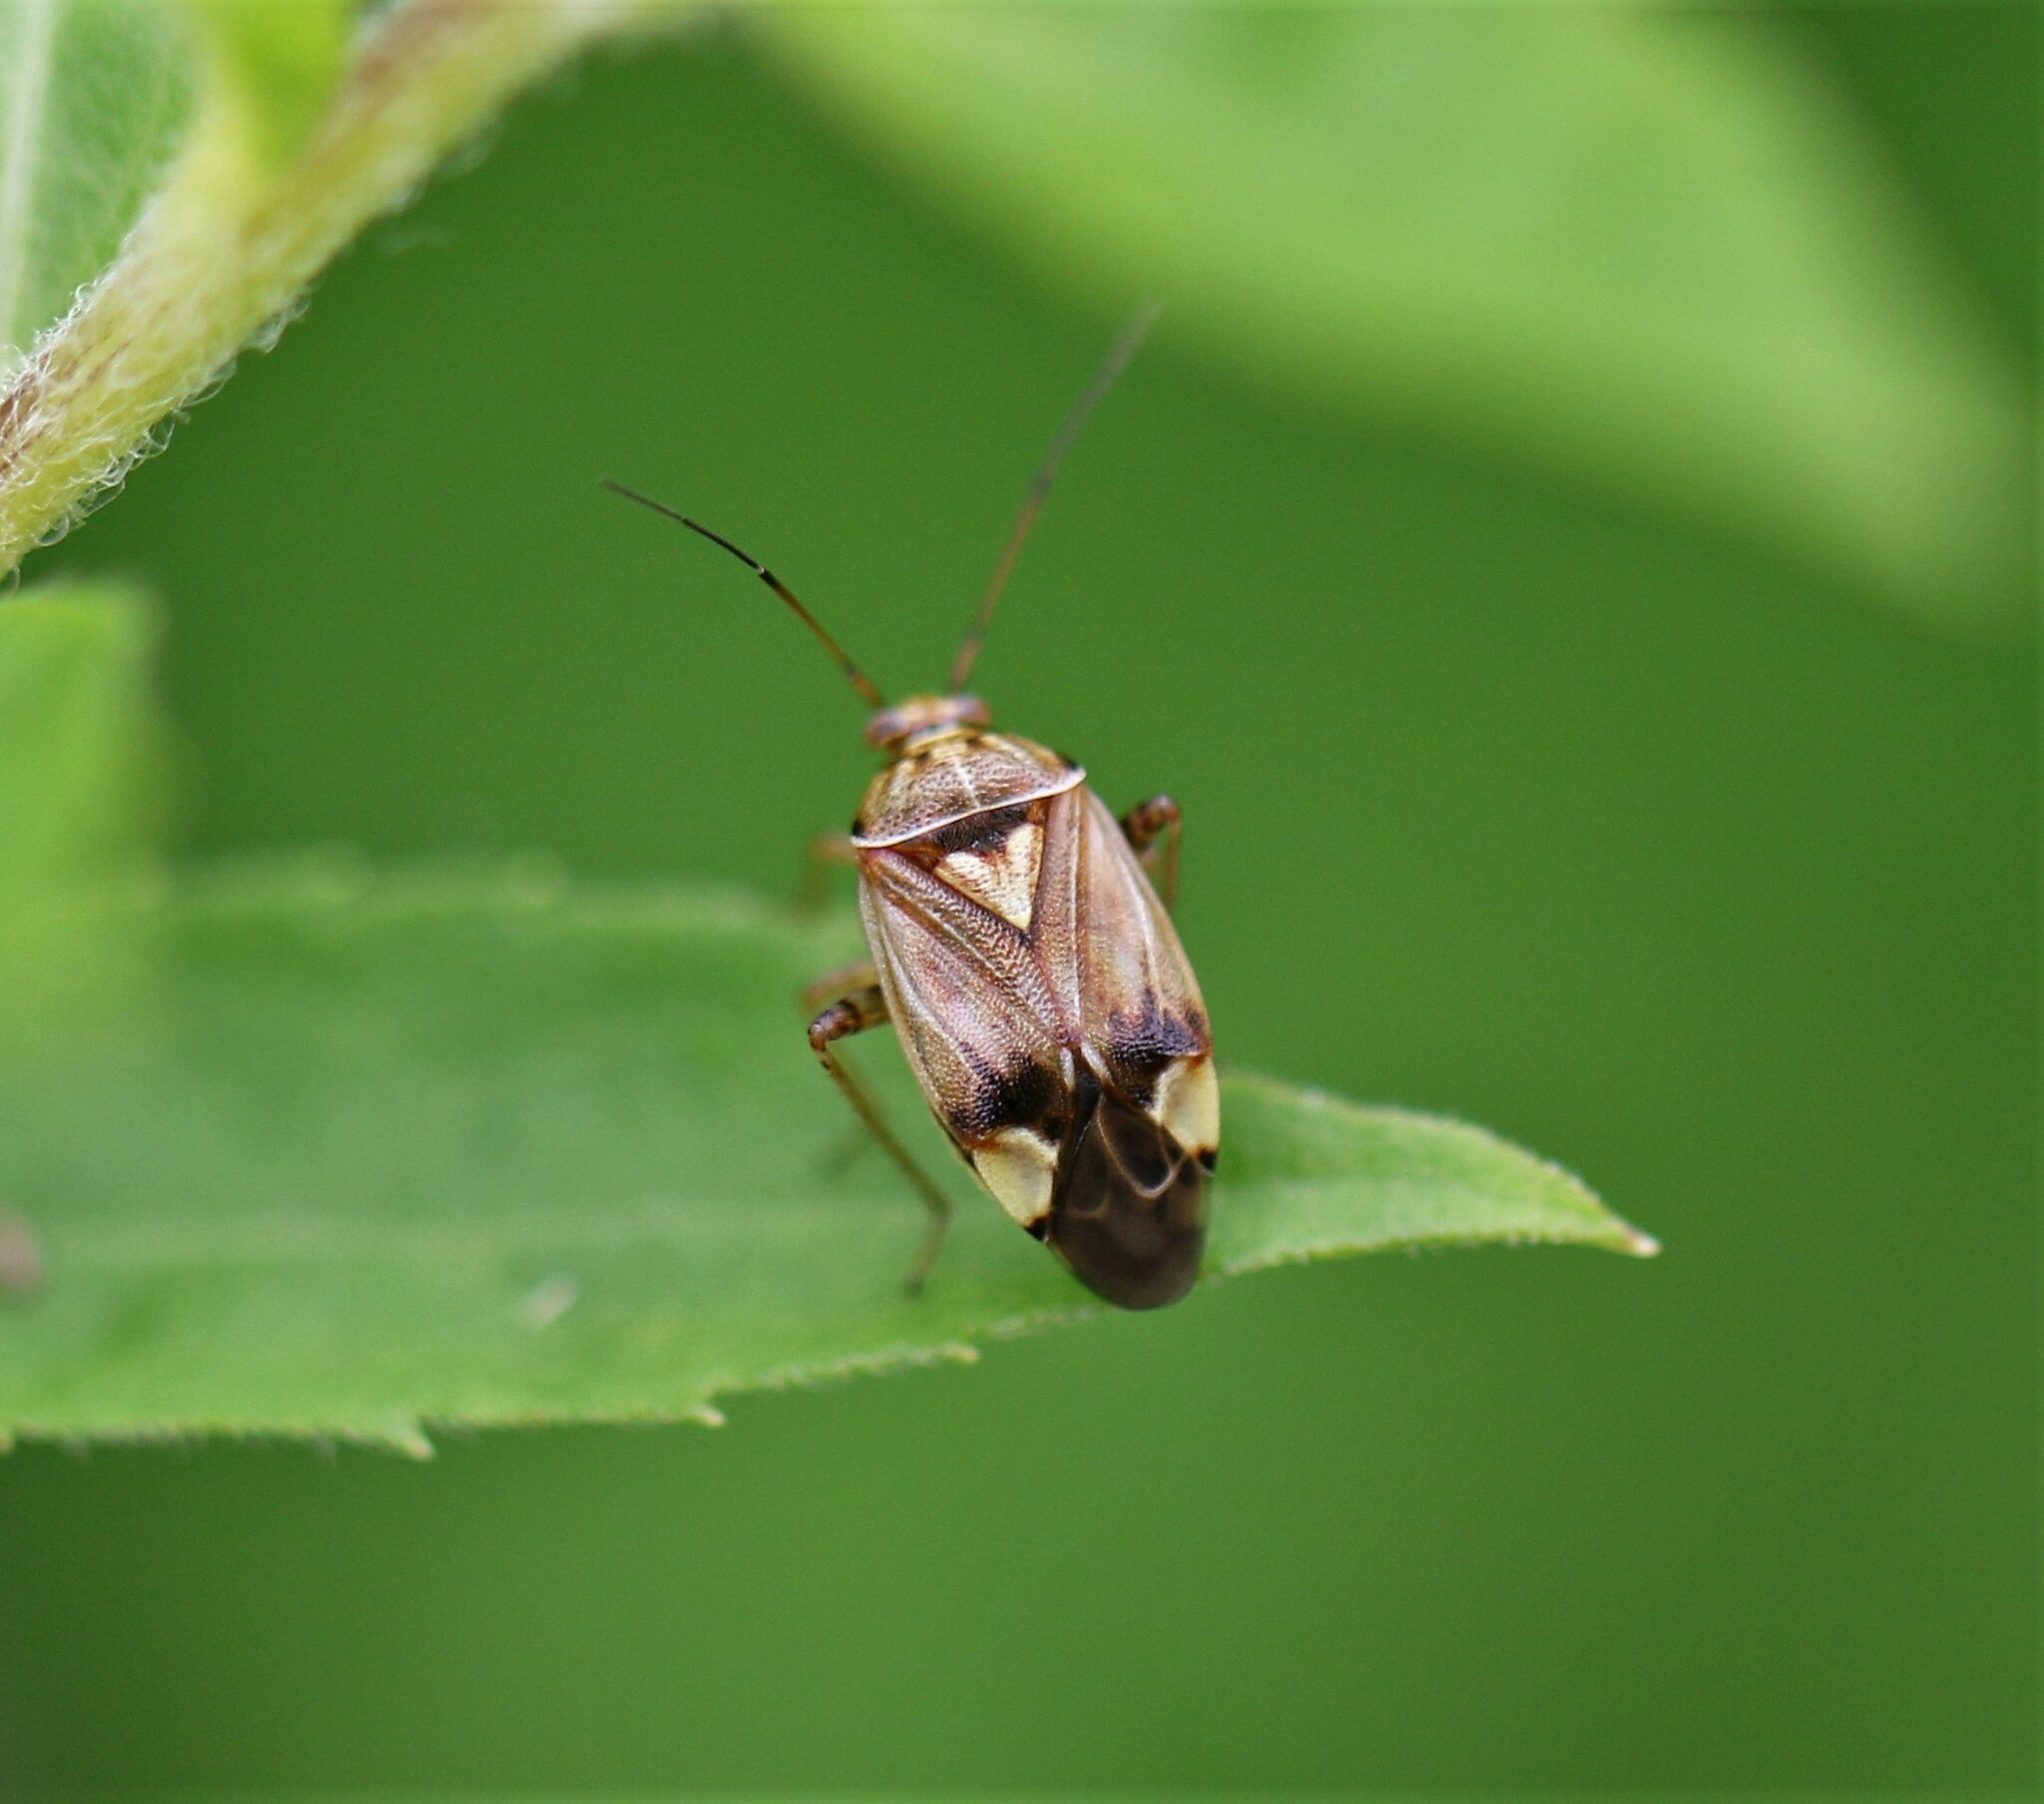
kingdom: Animalia
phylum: Arthropoda
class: Insecta
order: Hemiptera
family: Miridae
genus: Lygus
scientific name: Lygus lineolaris
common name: North american tarnished plant bug
